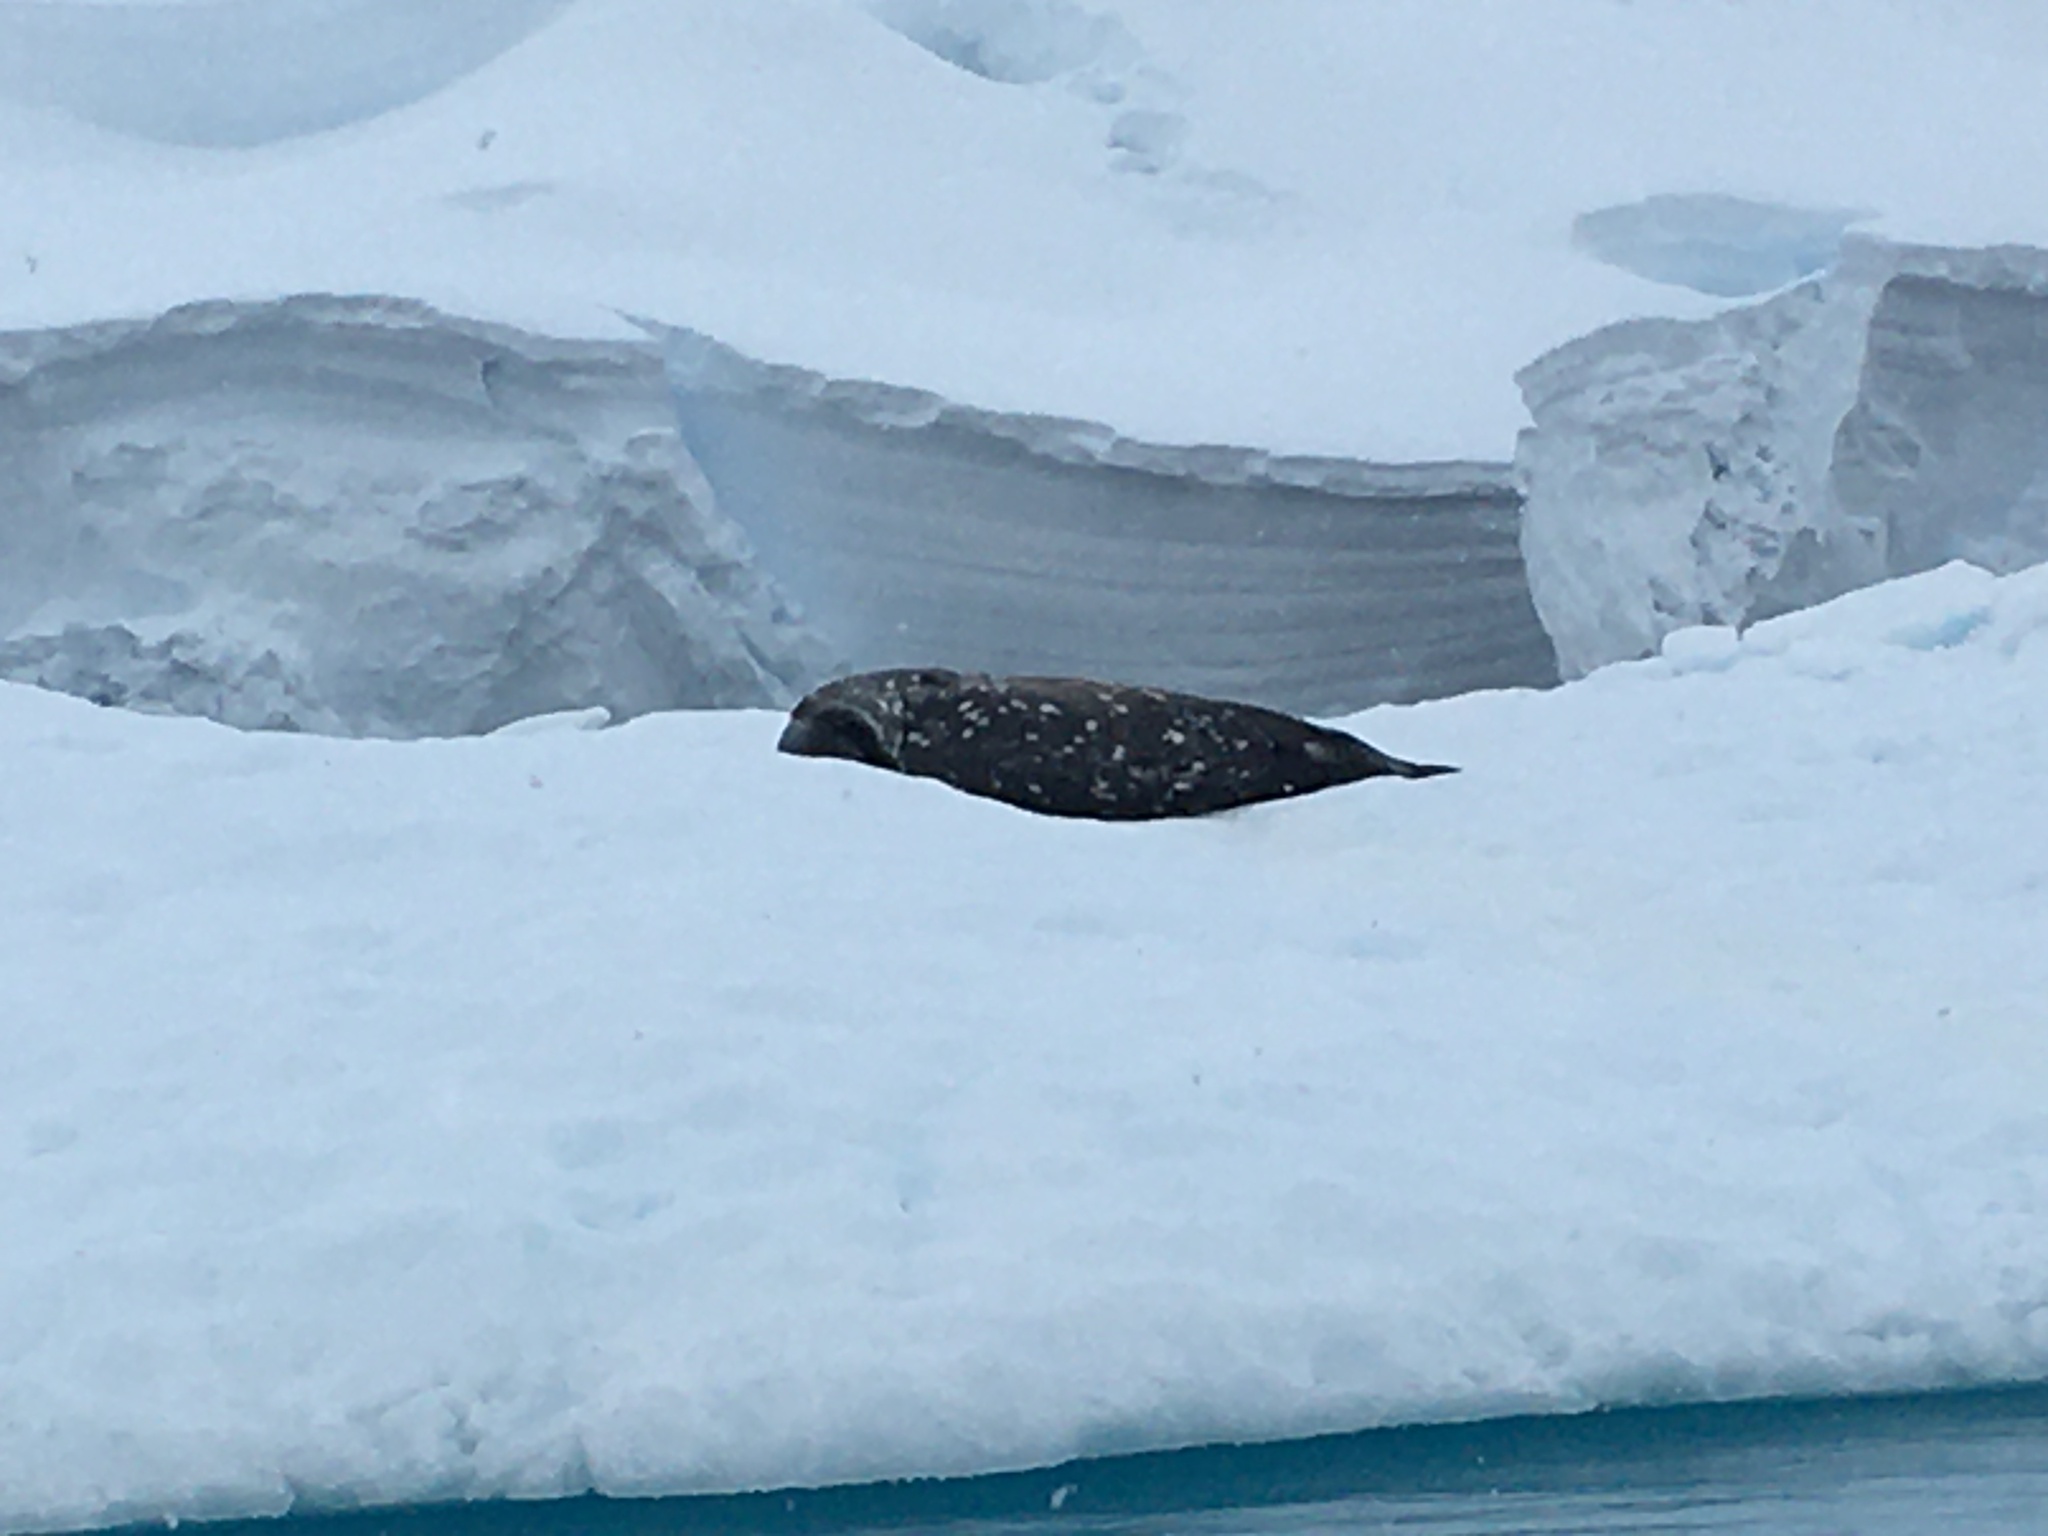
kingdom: Animalia
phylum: Chordata
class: Mammalia
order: Carnivora
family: Phocidae
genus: Leptonychotes
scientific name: Leptonychotes weddellii
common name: Weddell seal
